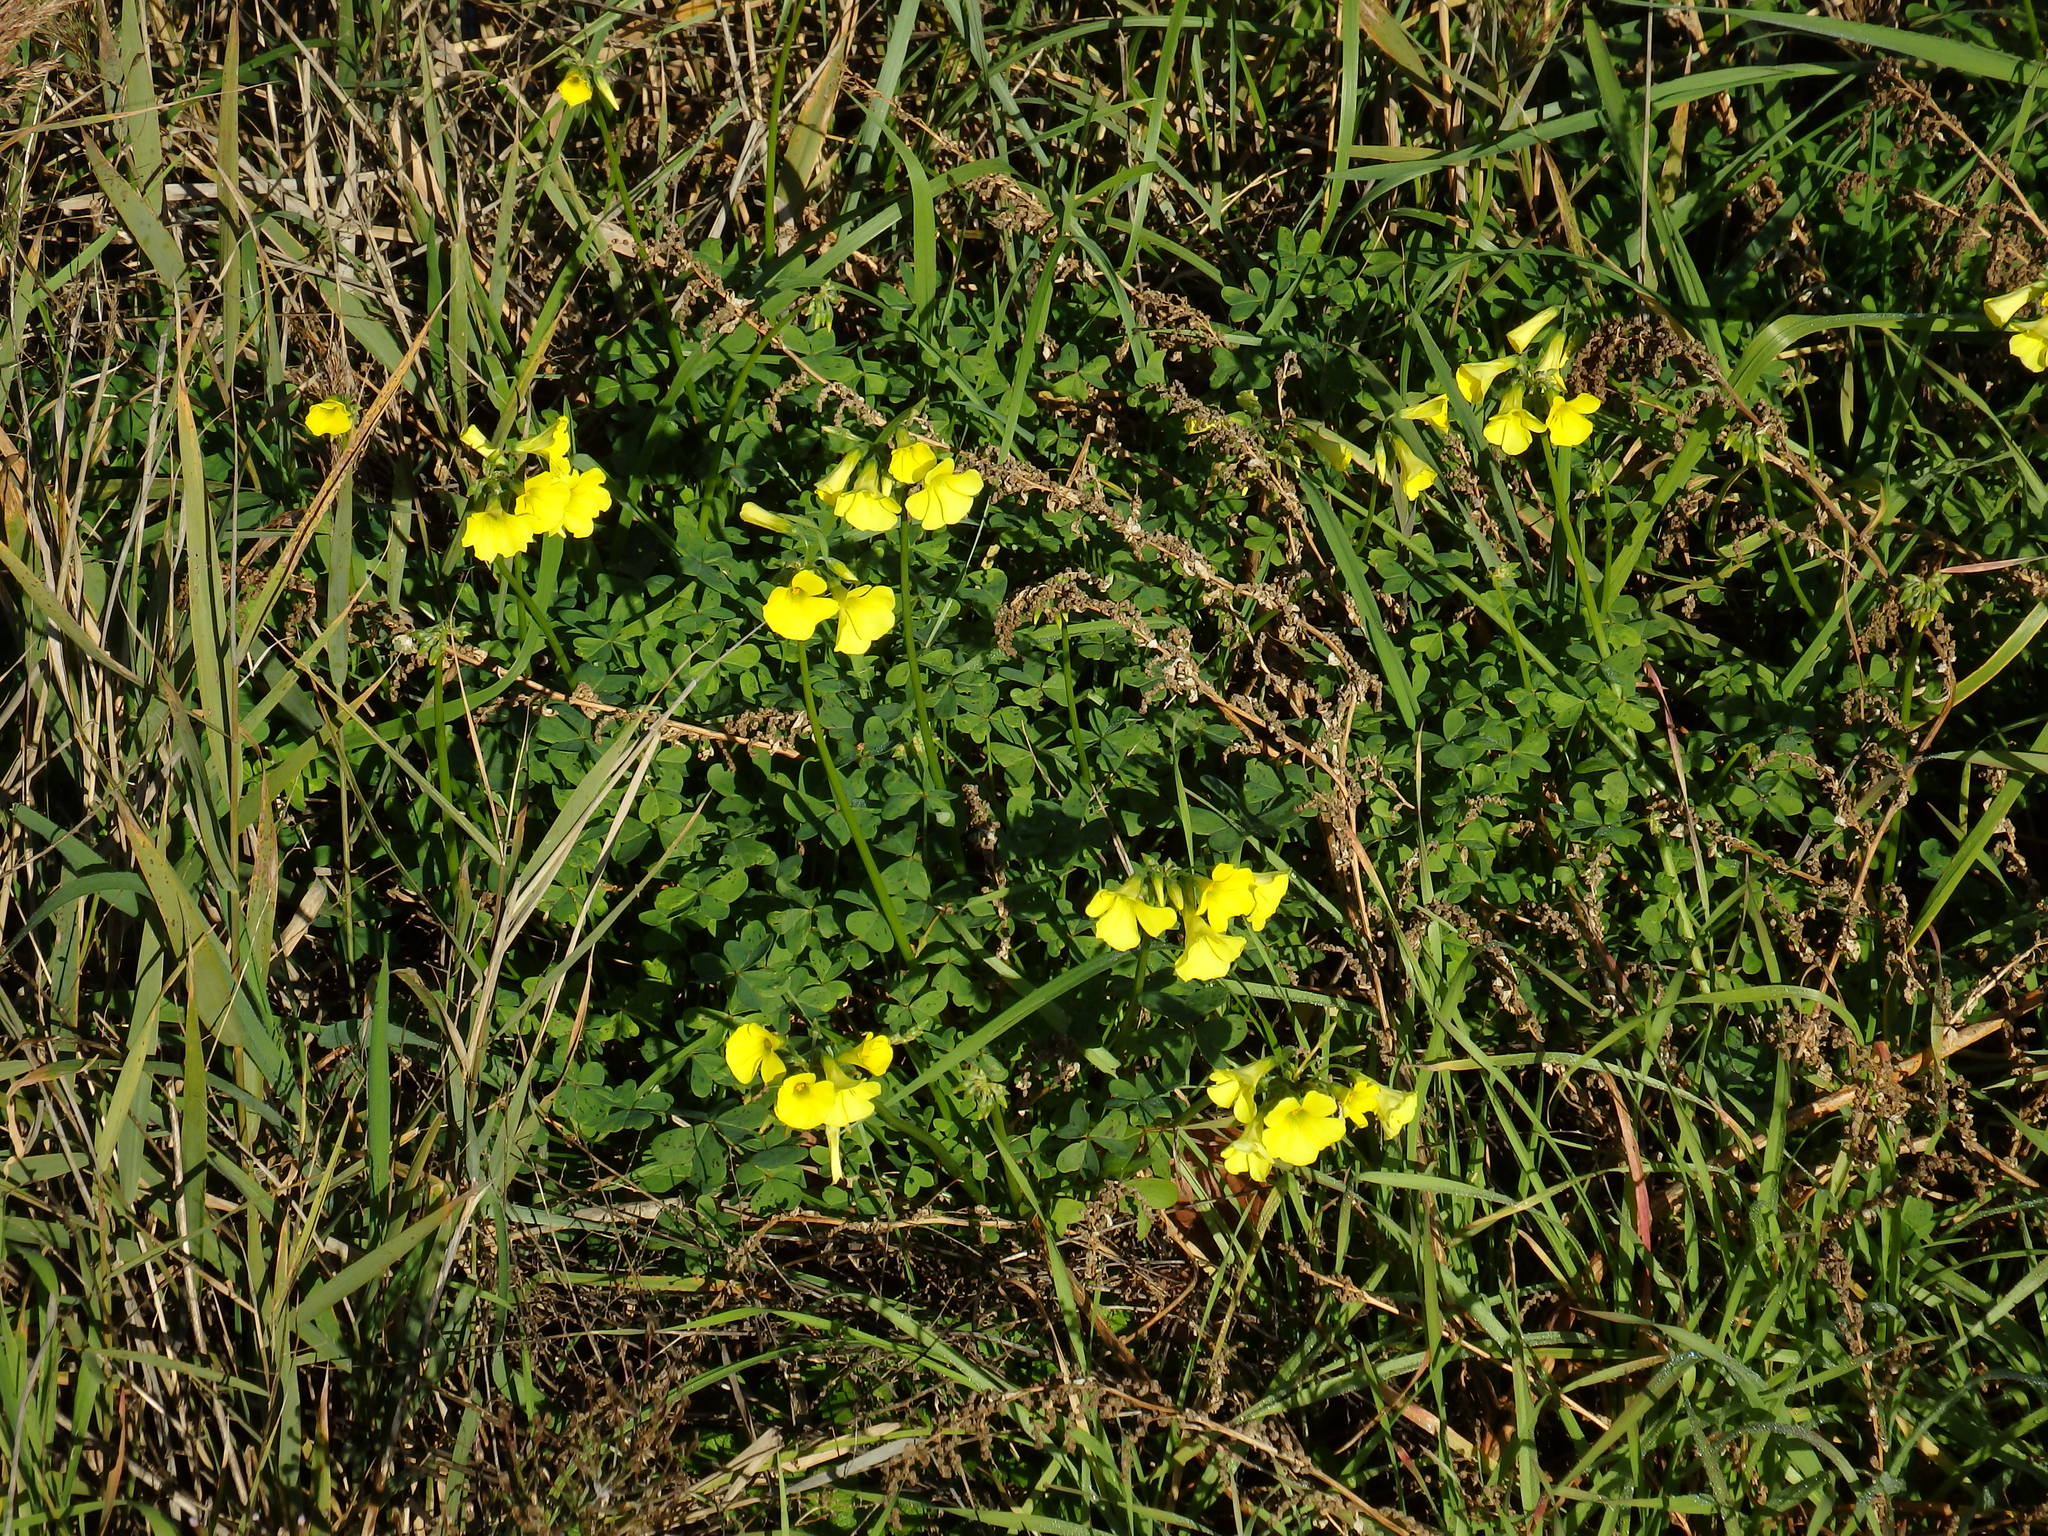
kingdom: Plantae
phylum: Tracheophyta
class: Magnoliopsida
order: Oxalidales
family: Oxalidaceae
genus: Oxalis
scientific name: Oxalis pes-caprae
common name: Bermuda-buttercup
